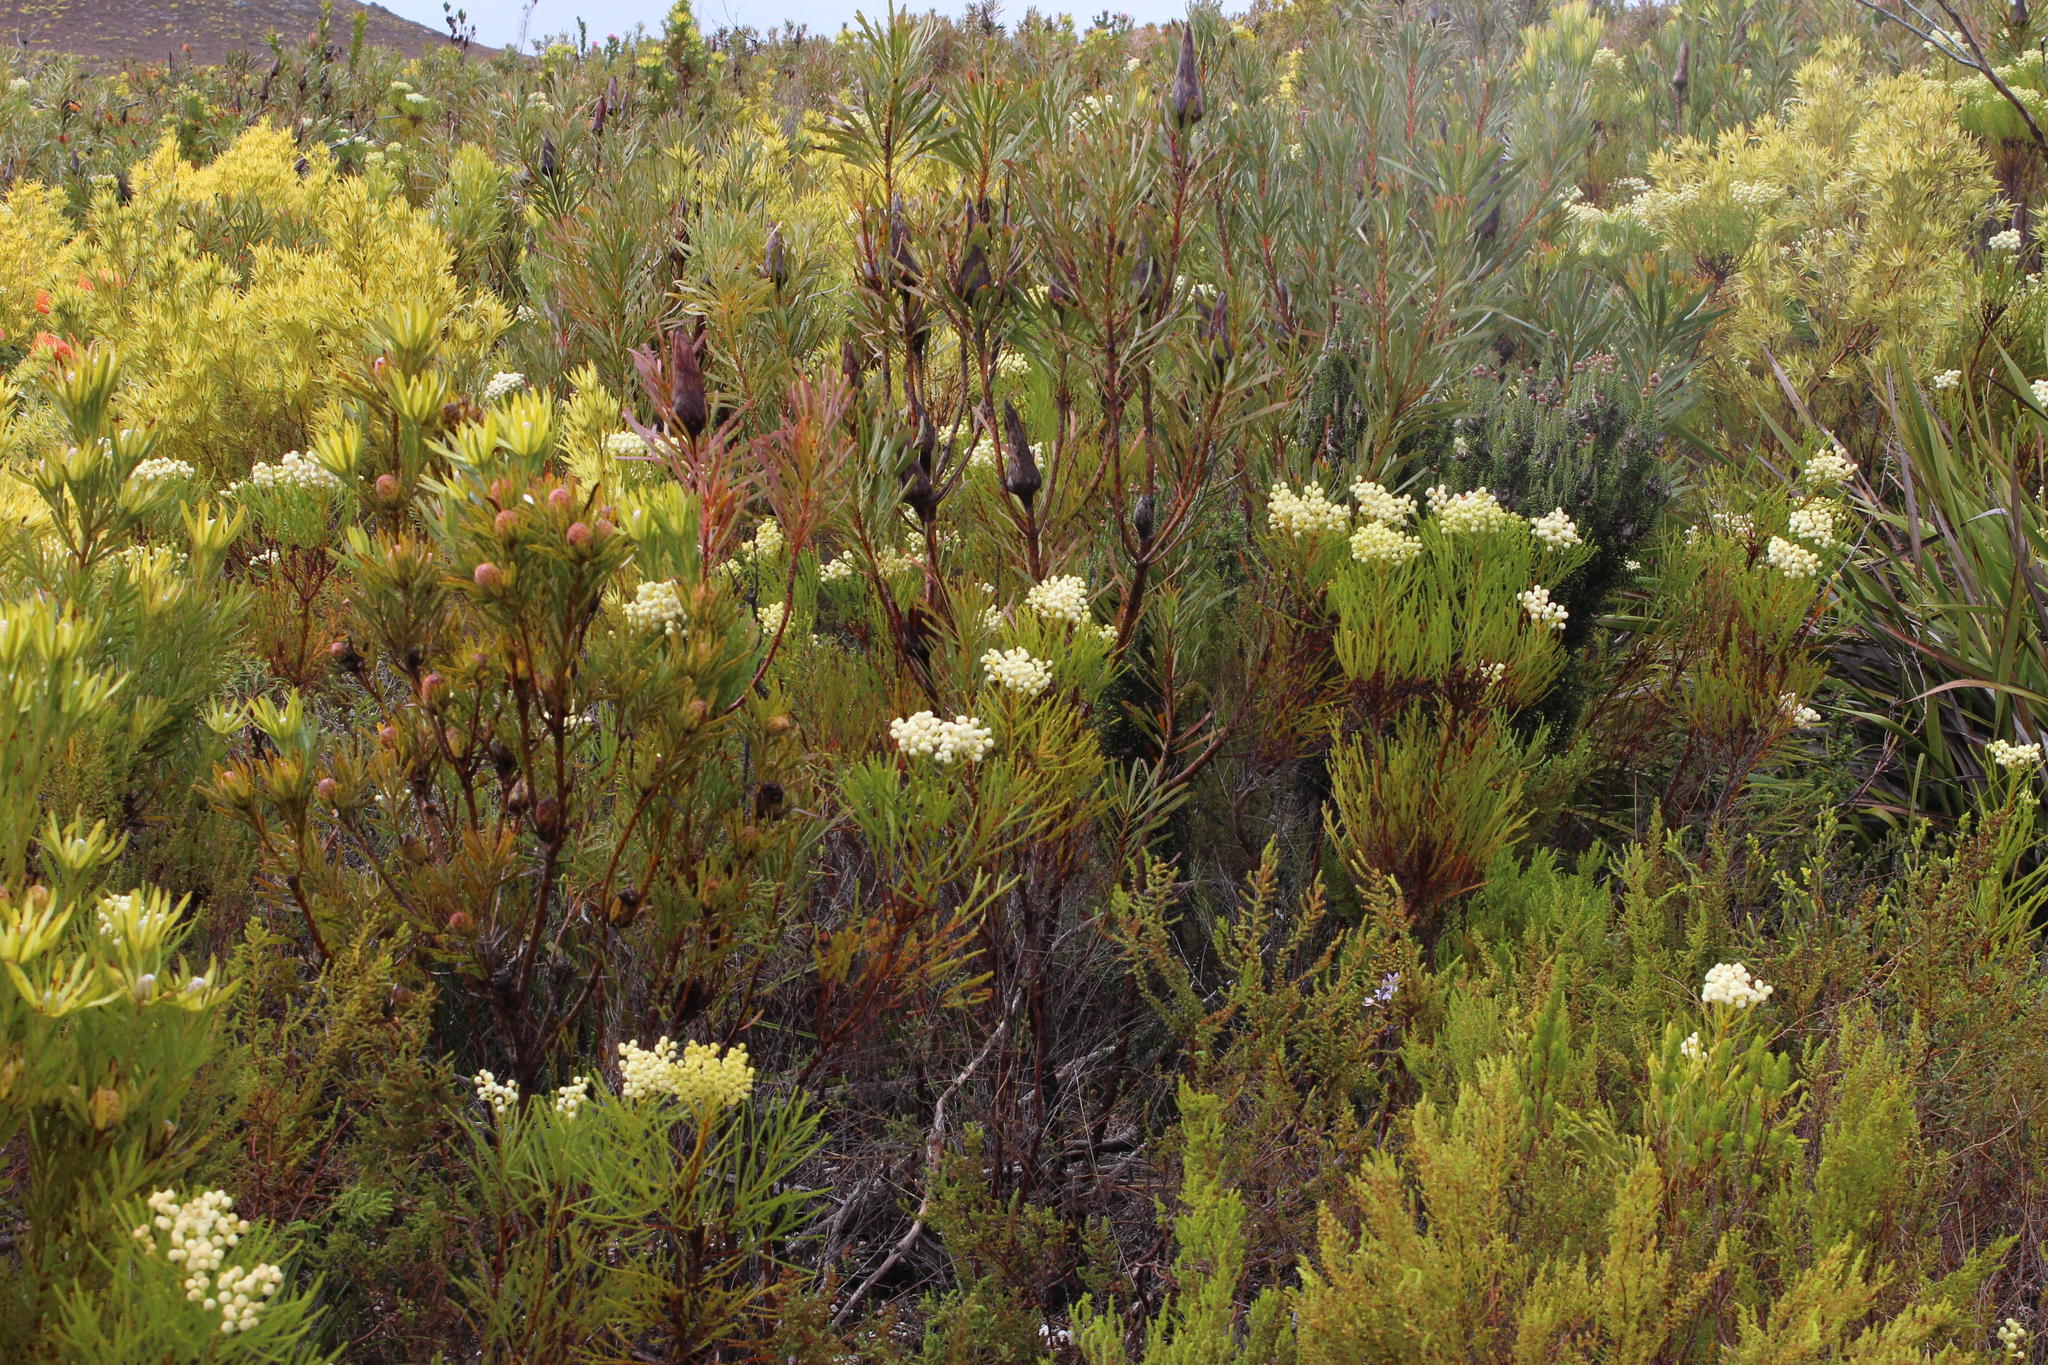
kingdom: Plantae
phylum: Tracheophyta
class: Magnoliopsida
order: Proteales
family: Proteaceae
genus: Protea
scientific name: Protea repens
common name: Sugarbush
